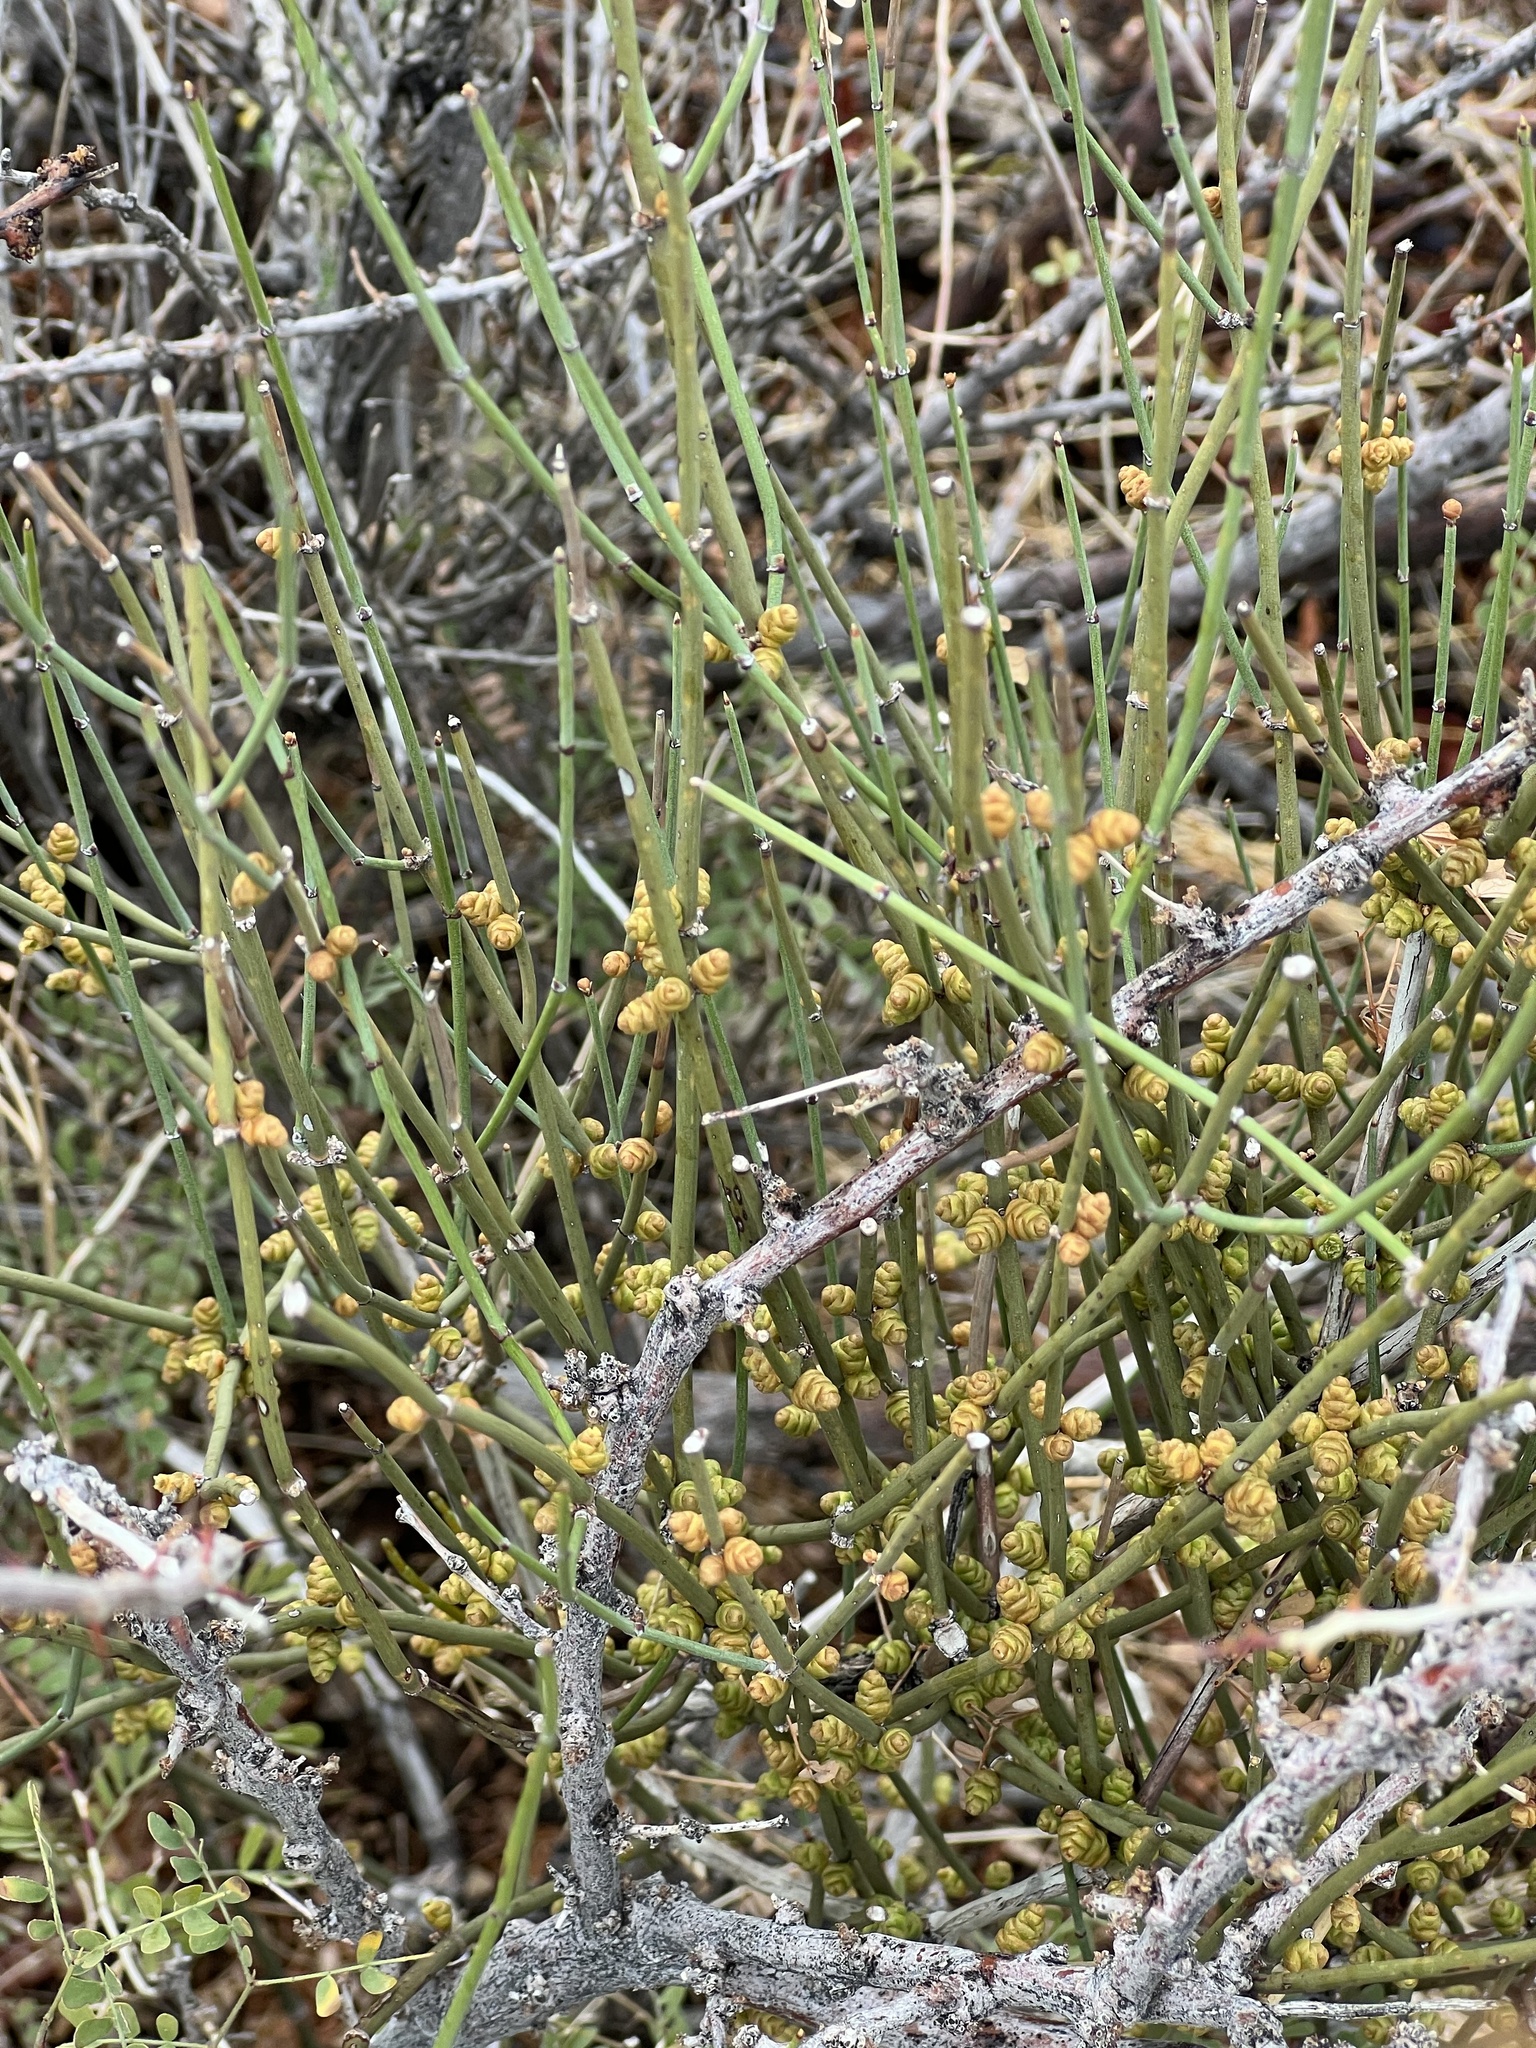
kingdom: Plantae
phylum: Tracheophyta
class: Gnetopsida
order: Ephedrales
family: Ephedraceae
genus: Ephedra
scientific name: Ephedra torreyana
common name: Torrey ephedra
